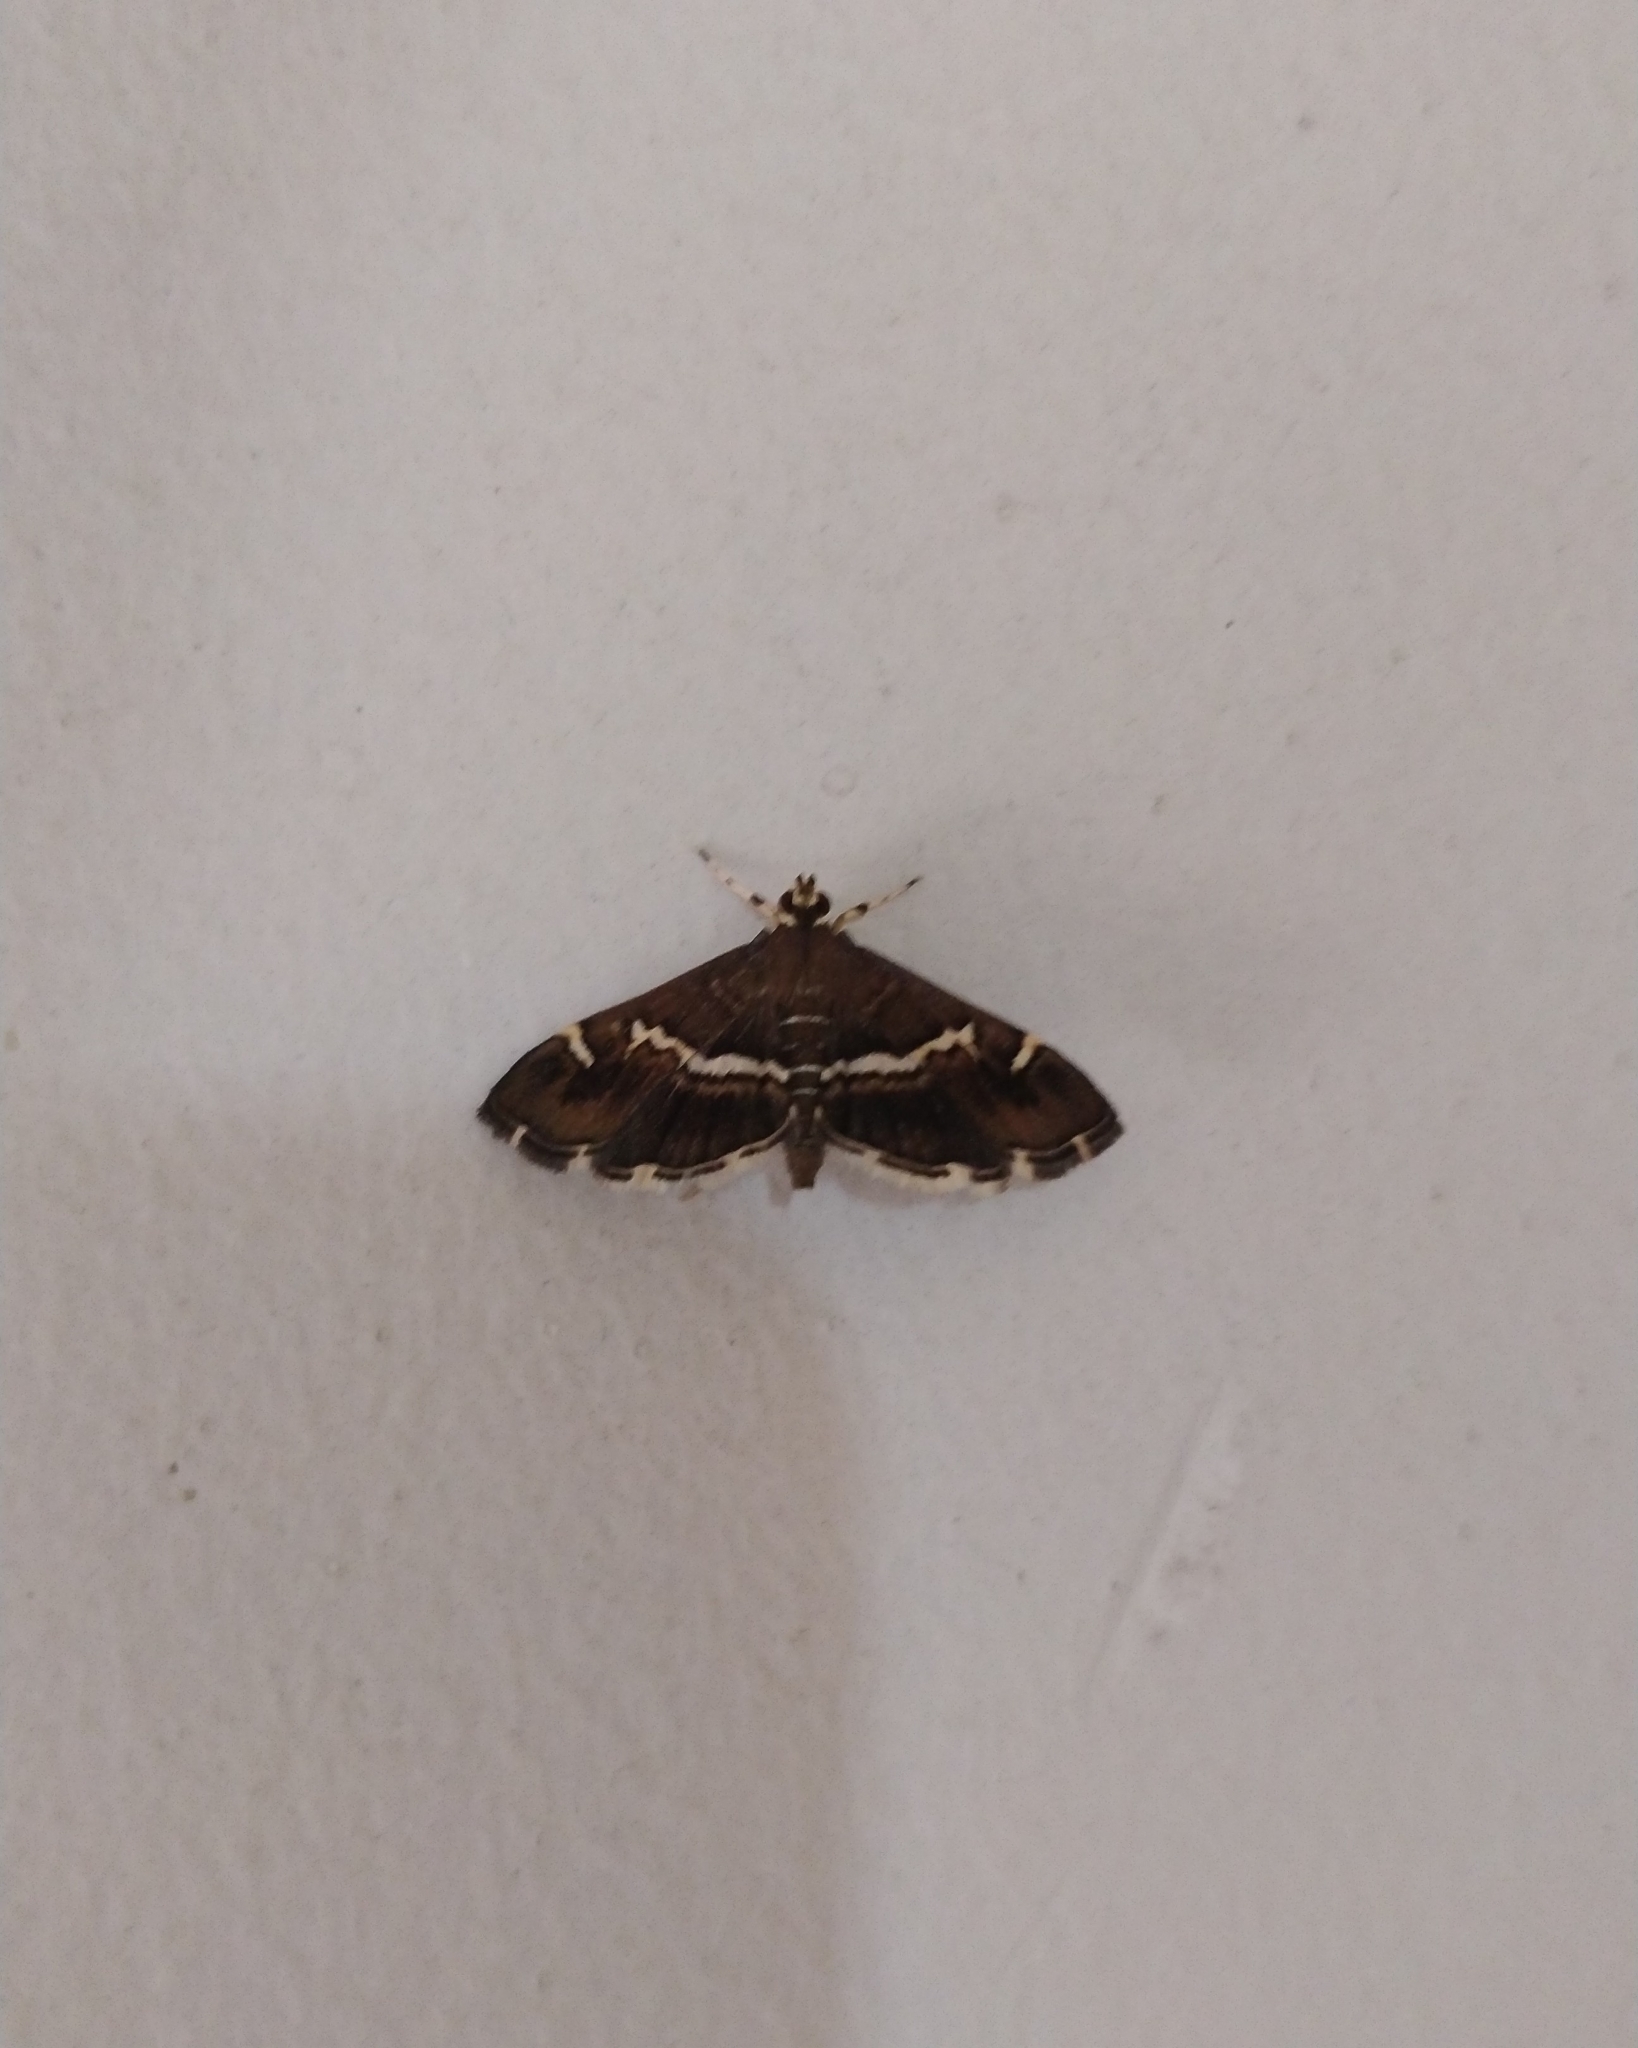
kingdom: Animalia
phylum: Arthropoda
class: Insecta
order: Lepidoptera
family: Crambidae
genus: Spoladea
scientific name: Spoladea recurvalis
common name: Beet webworm moth
